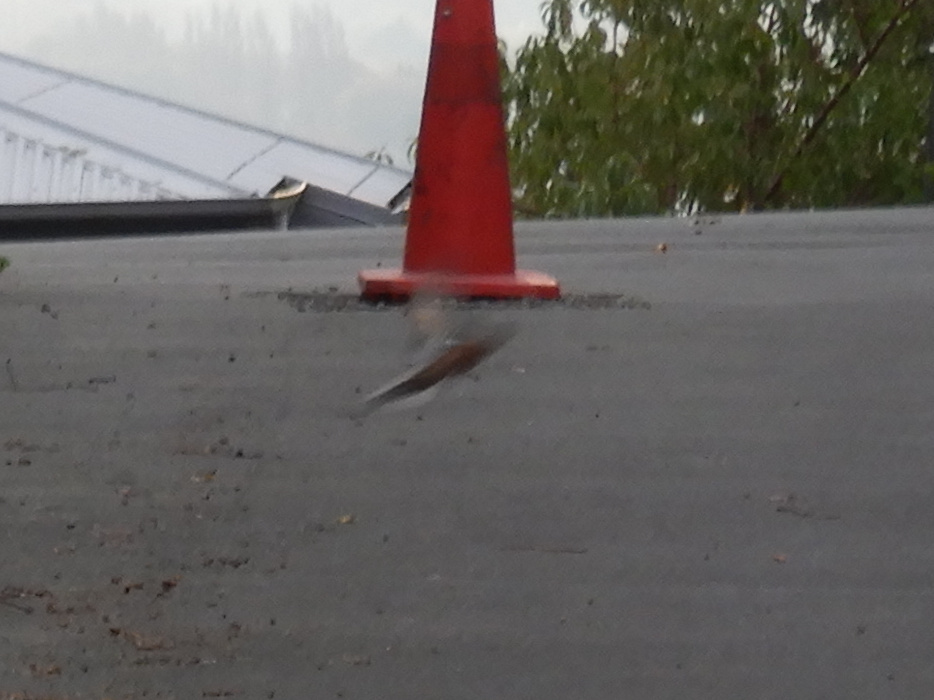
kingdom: Animalia
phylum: Chordata
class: Aves
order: Passeriformes
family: Fringillidae
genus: Fringilla
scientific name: Fringilla coelebs
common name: Common chaffinch
